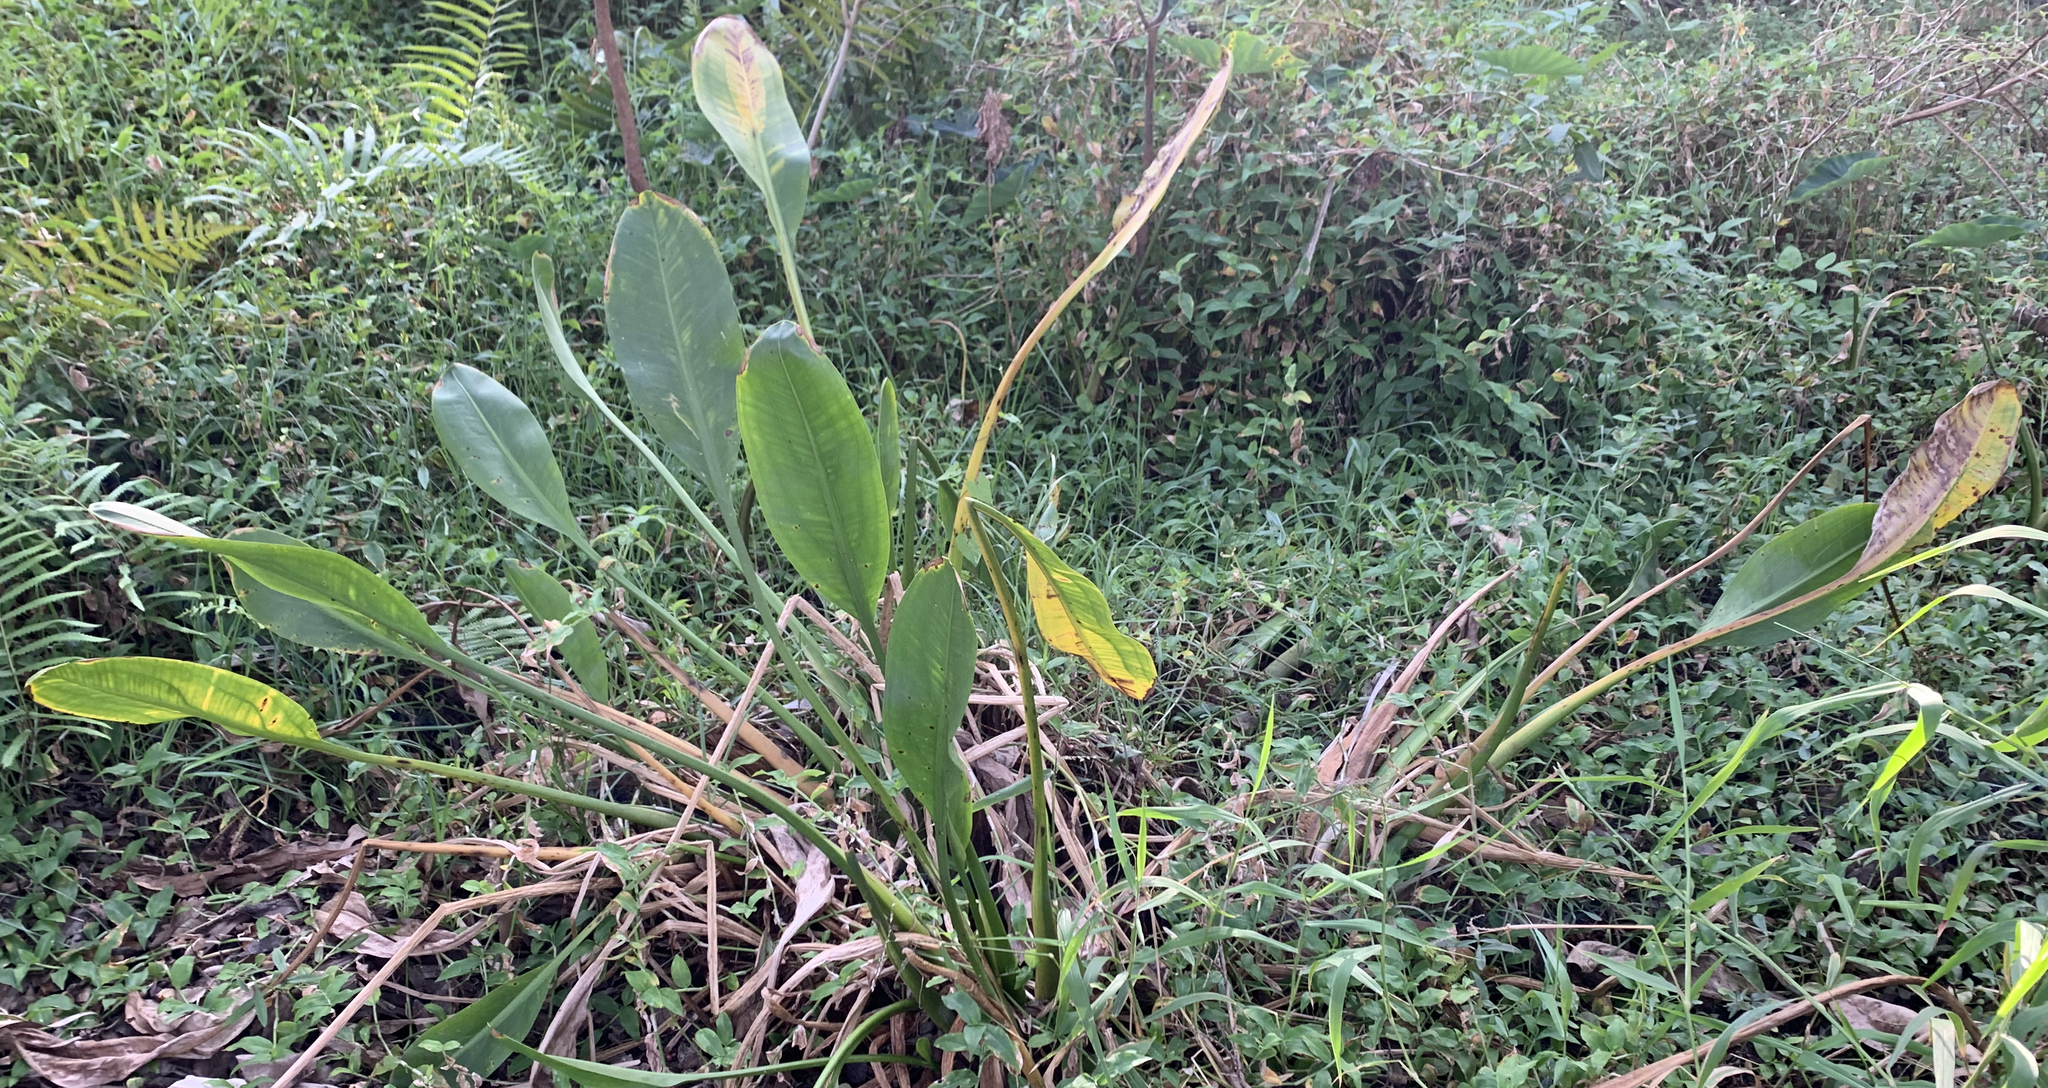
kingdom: Plantae
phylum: Tracheophyta
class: Liliopsida
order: Alismatales
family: Alismataceae
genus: Sagittaria
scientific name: Sagittaria lancifolia
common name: Lance-leaf arrowhead
